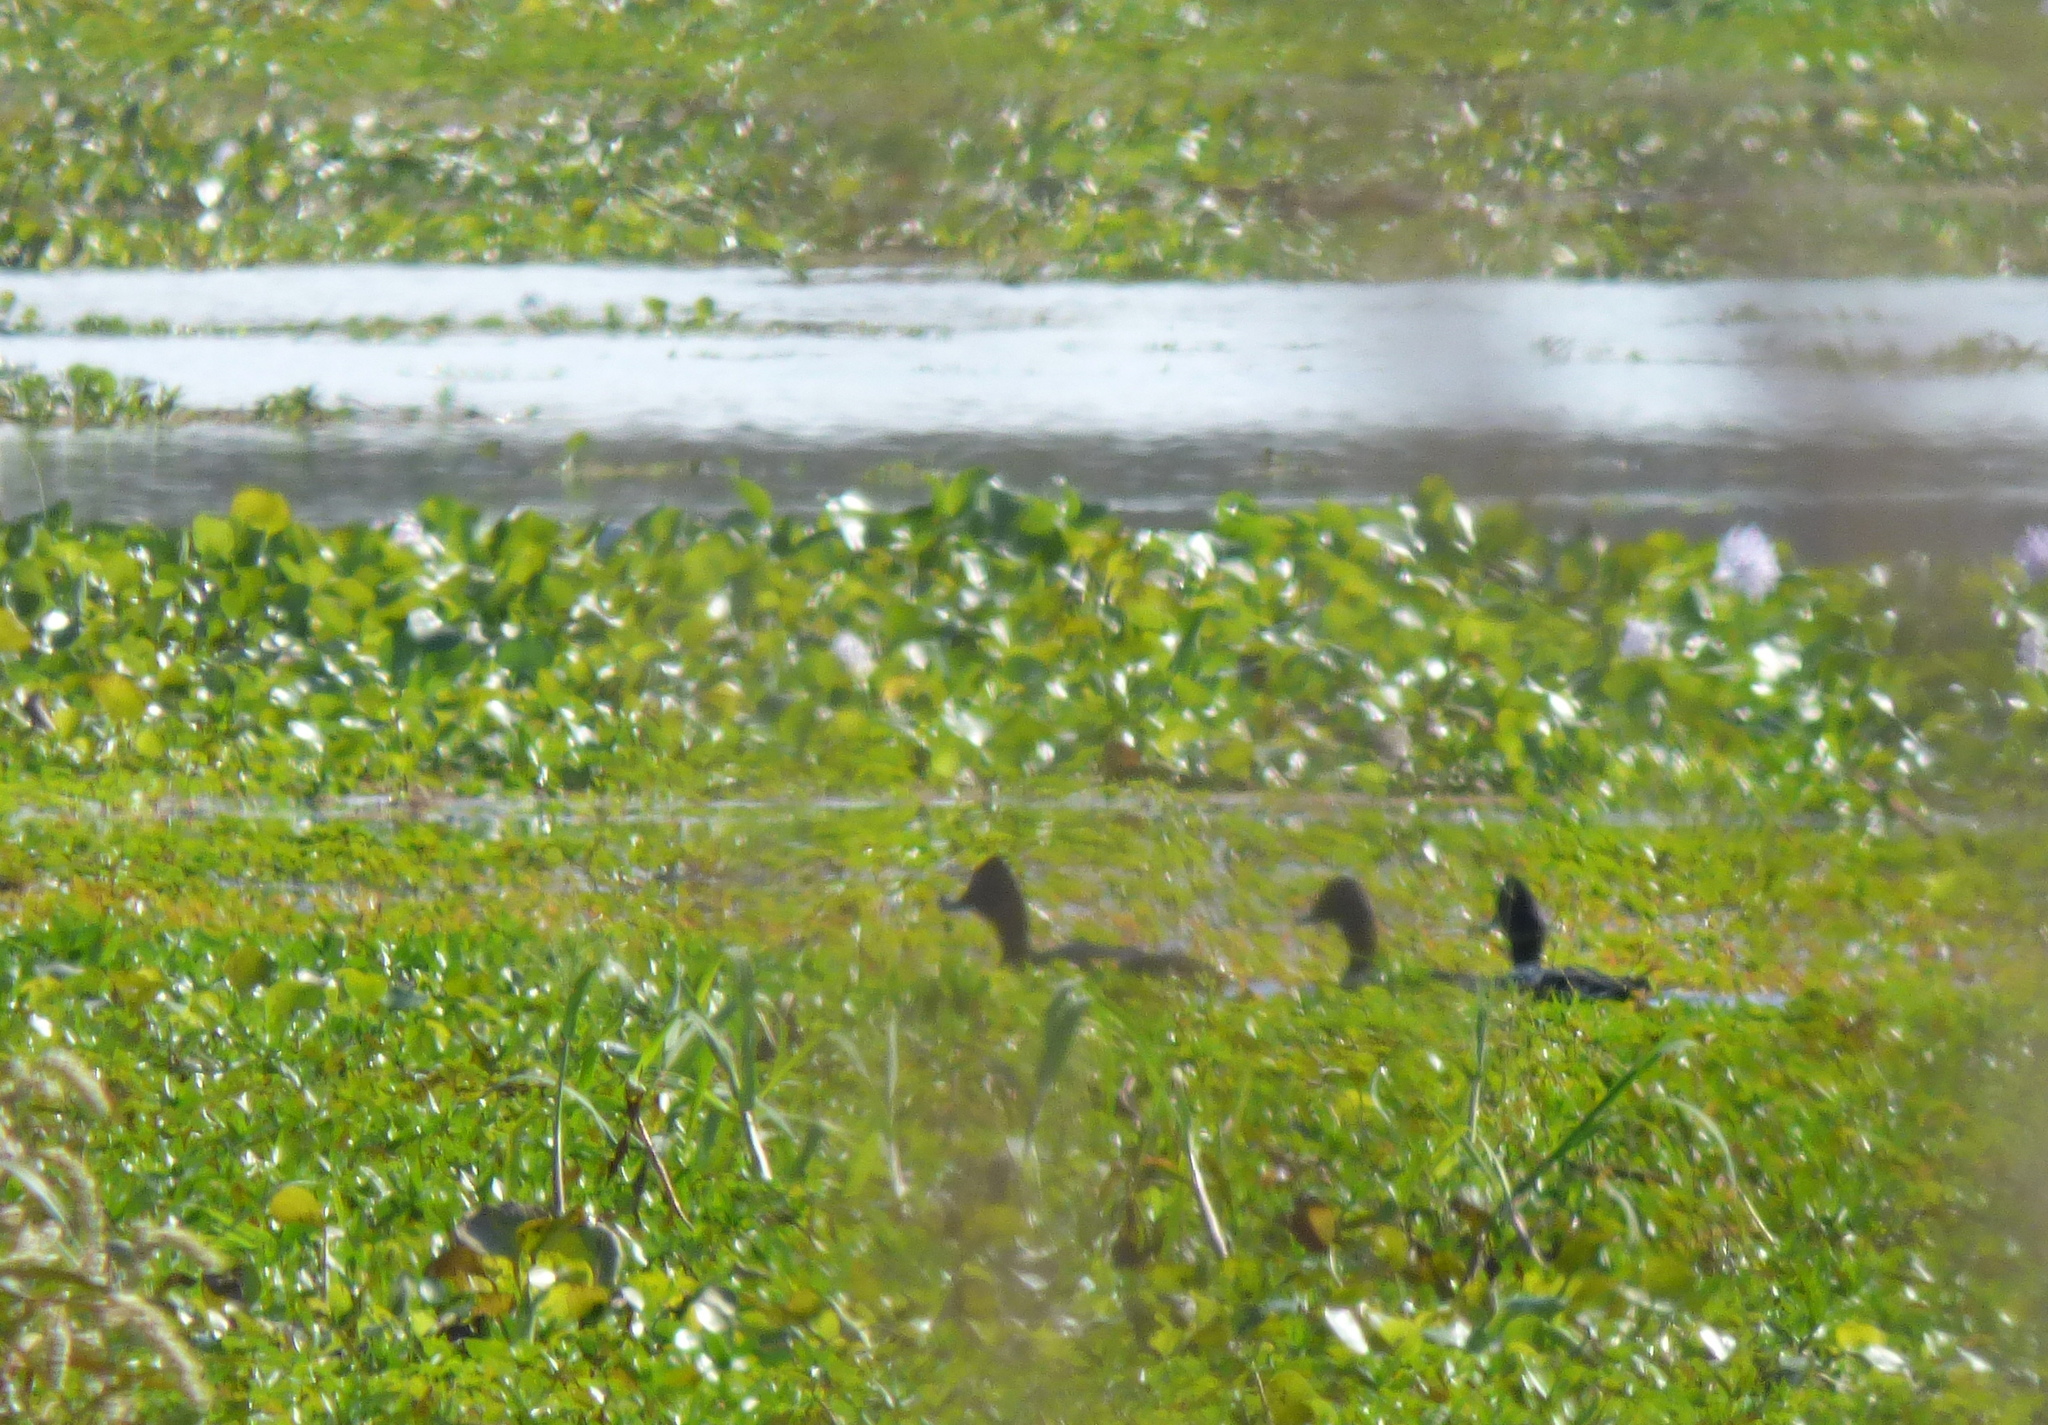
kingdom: Animalia
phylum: Chordata
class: Aves
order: Anseriformes
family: Anatidae
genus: Cairina
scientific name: Cairina moschata
